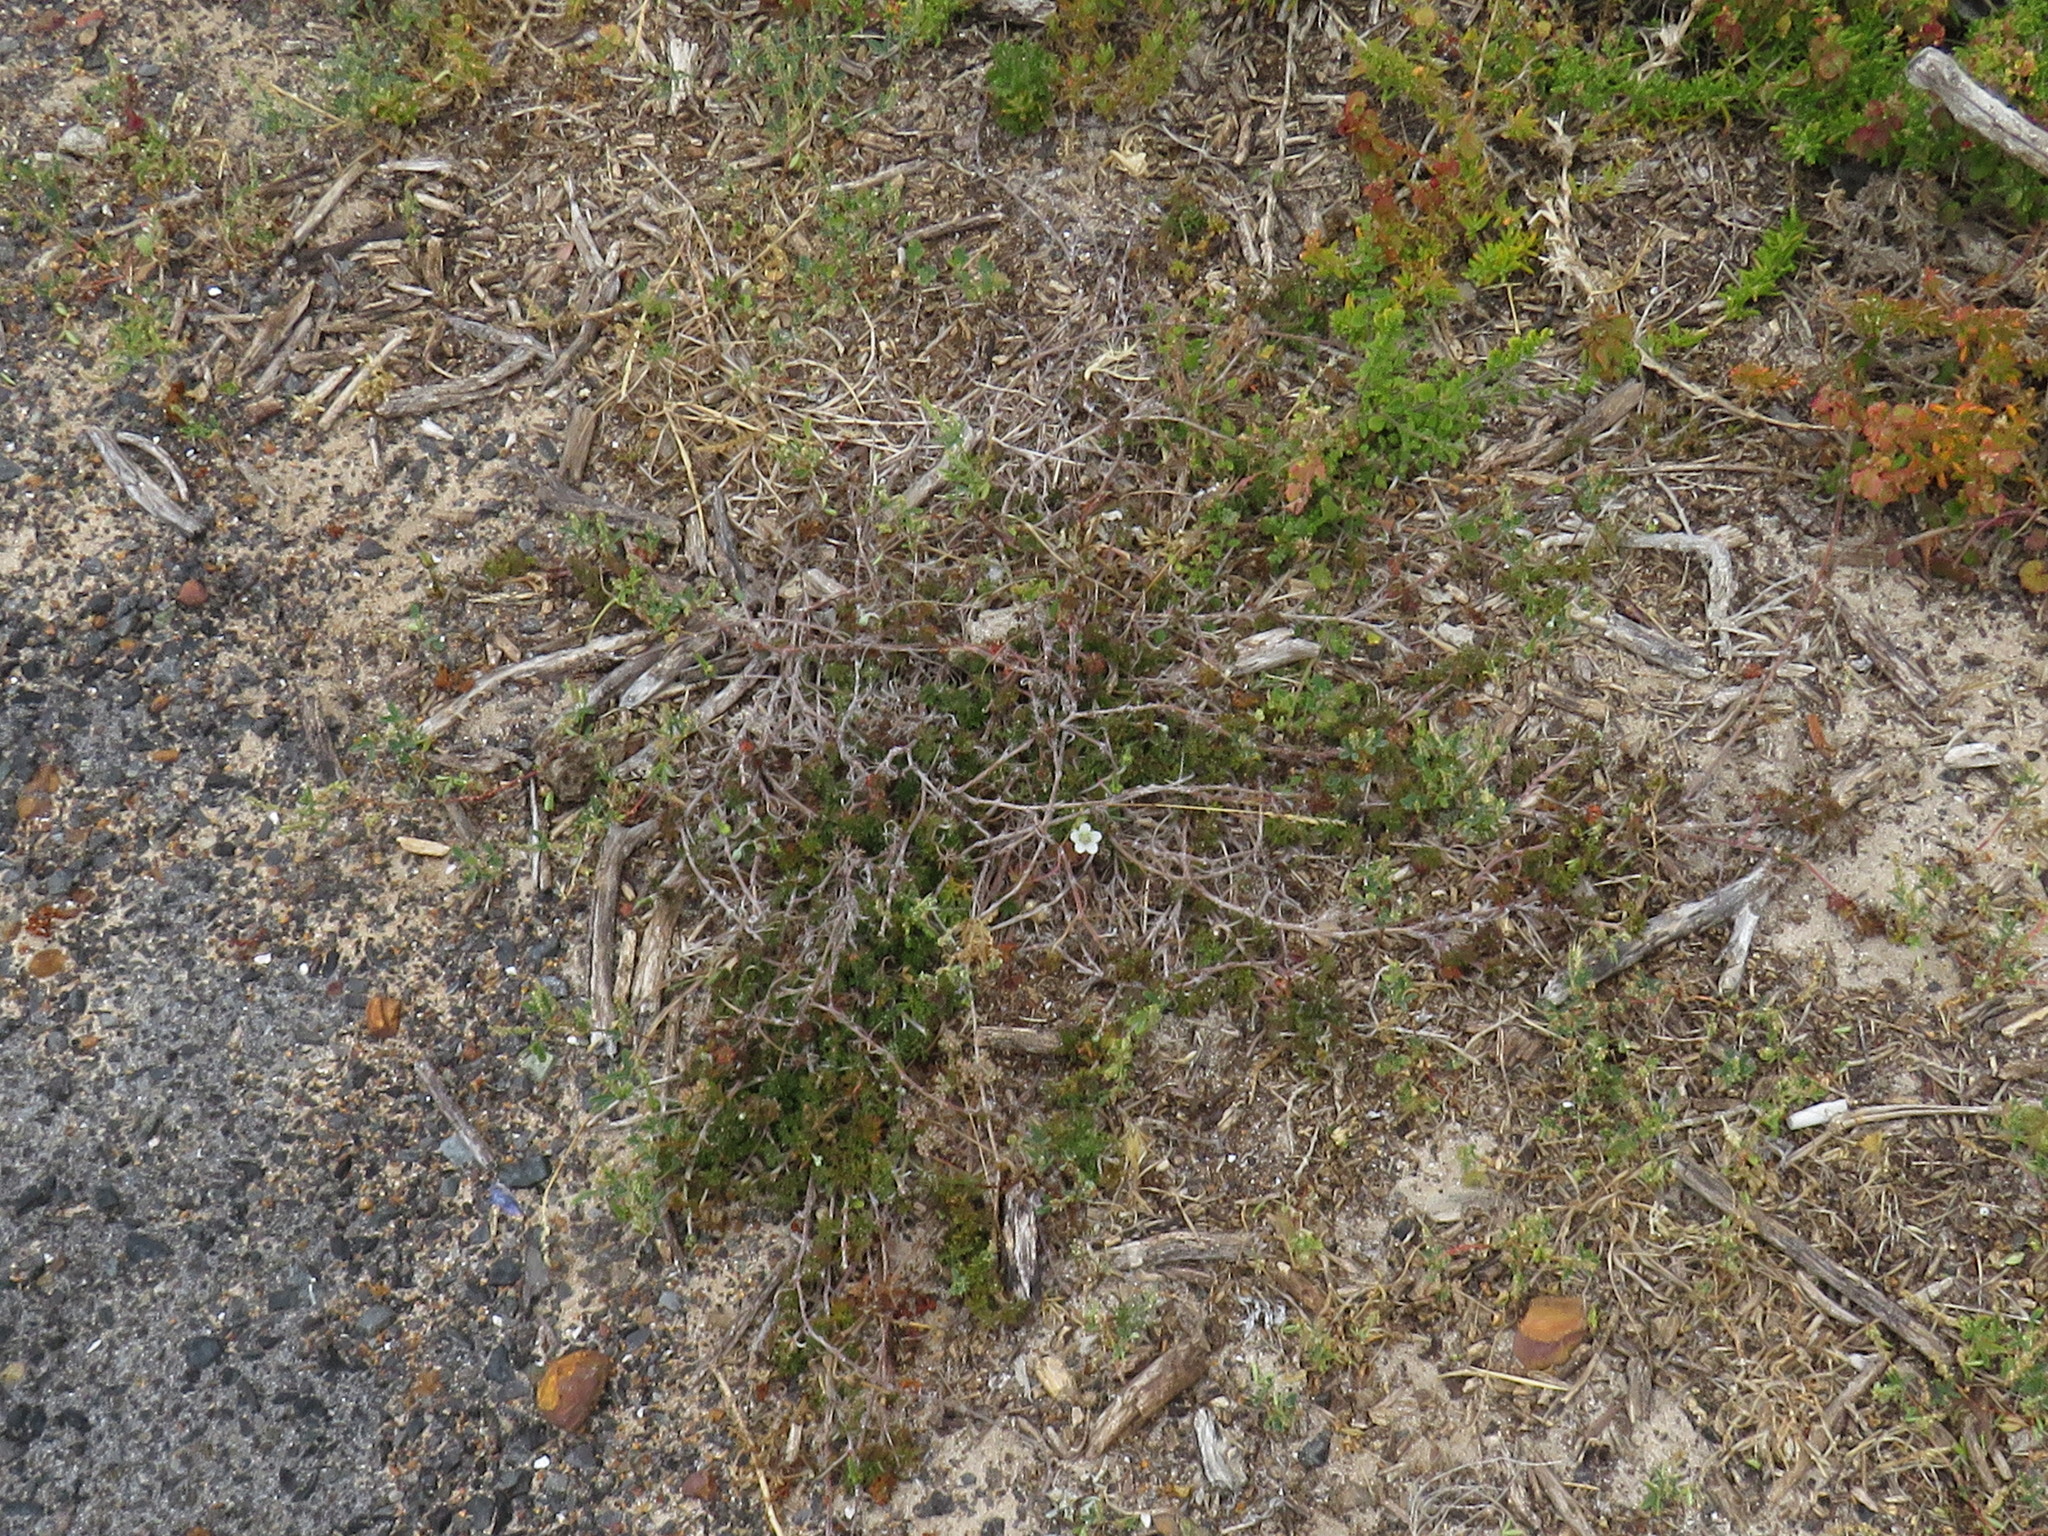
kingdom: Plantae
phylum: Tracheophyta
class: Magnoliopsida
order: Geraniales
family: Geraniaceae
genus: Geranium
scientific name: Geranium incanum
